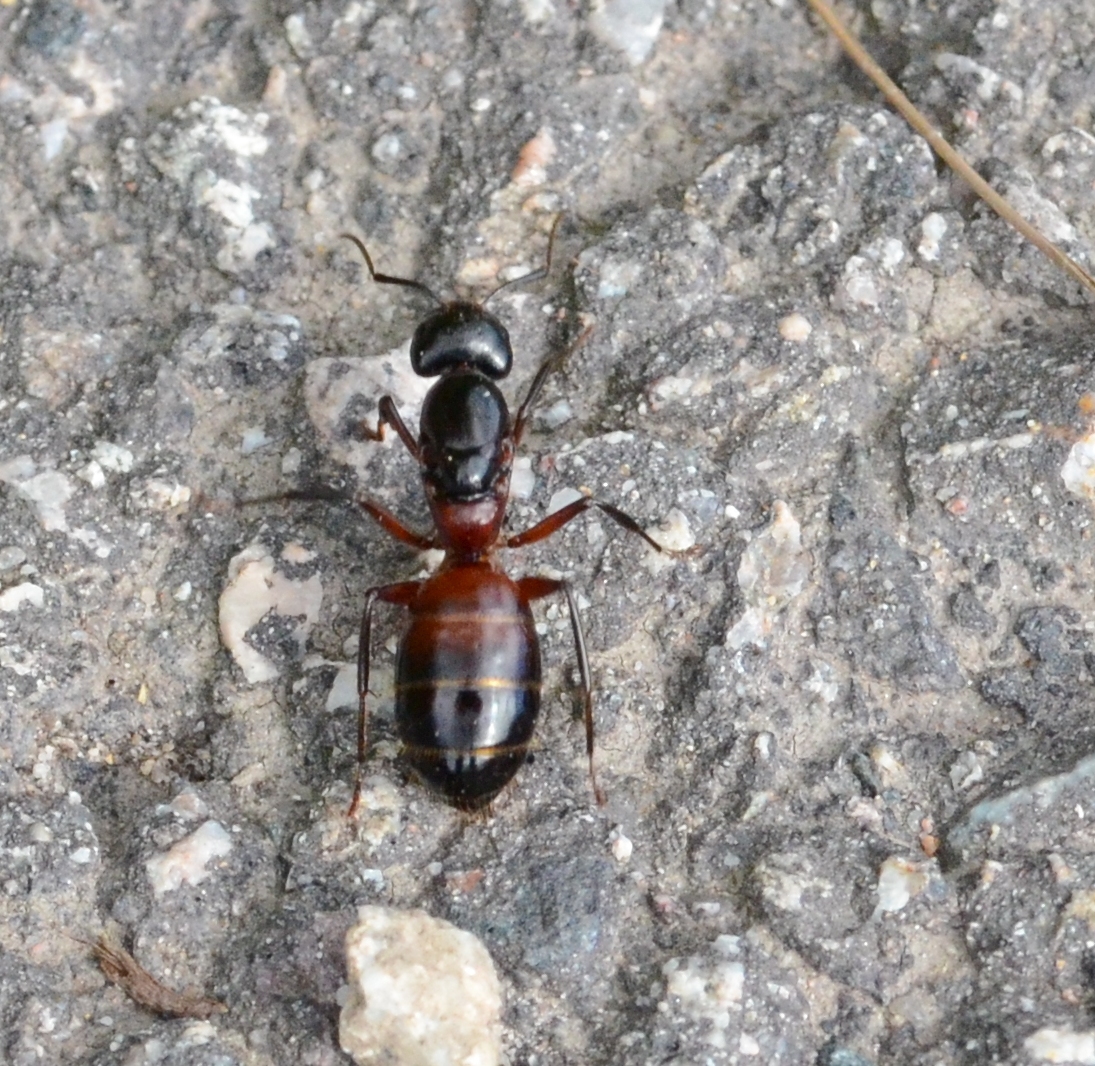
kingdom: Animalia
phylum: Arthropoda
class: Insecta
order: Hymenoptera
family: Formicidae
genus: Camponotus
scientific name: Camponotus ligniperdus
